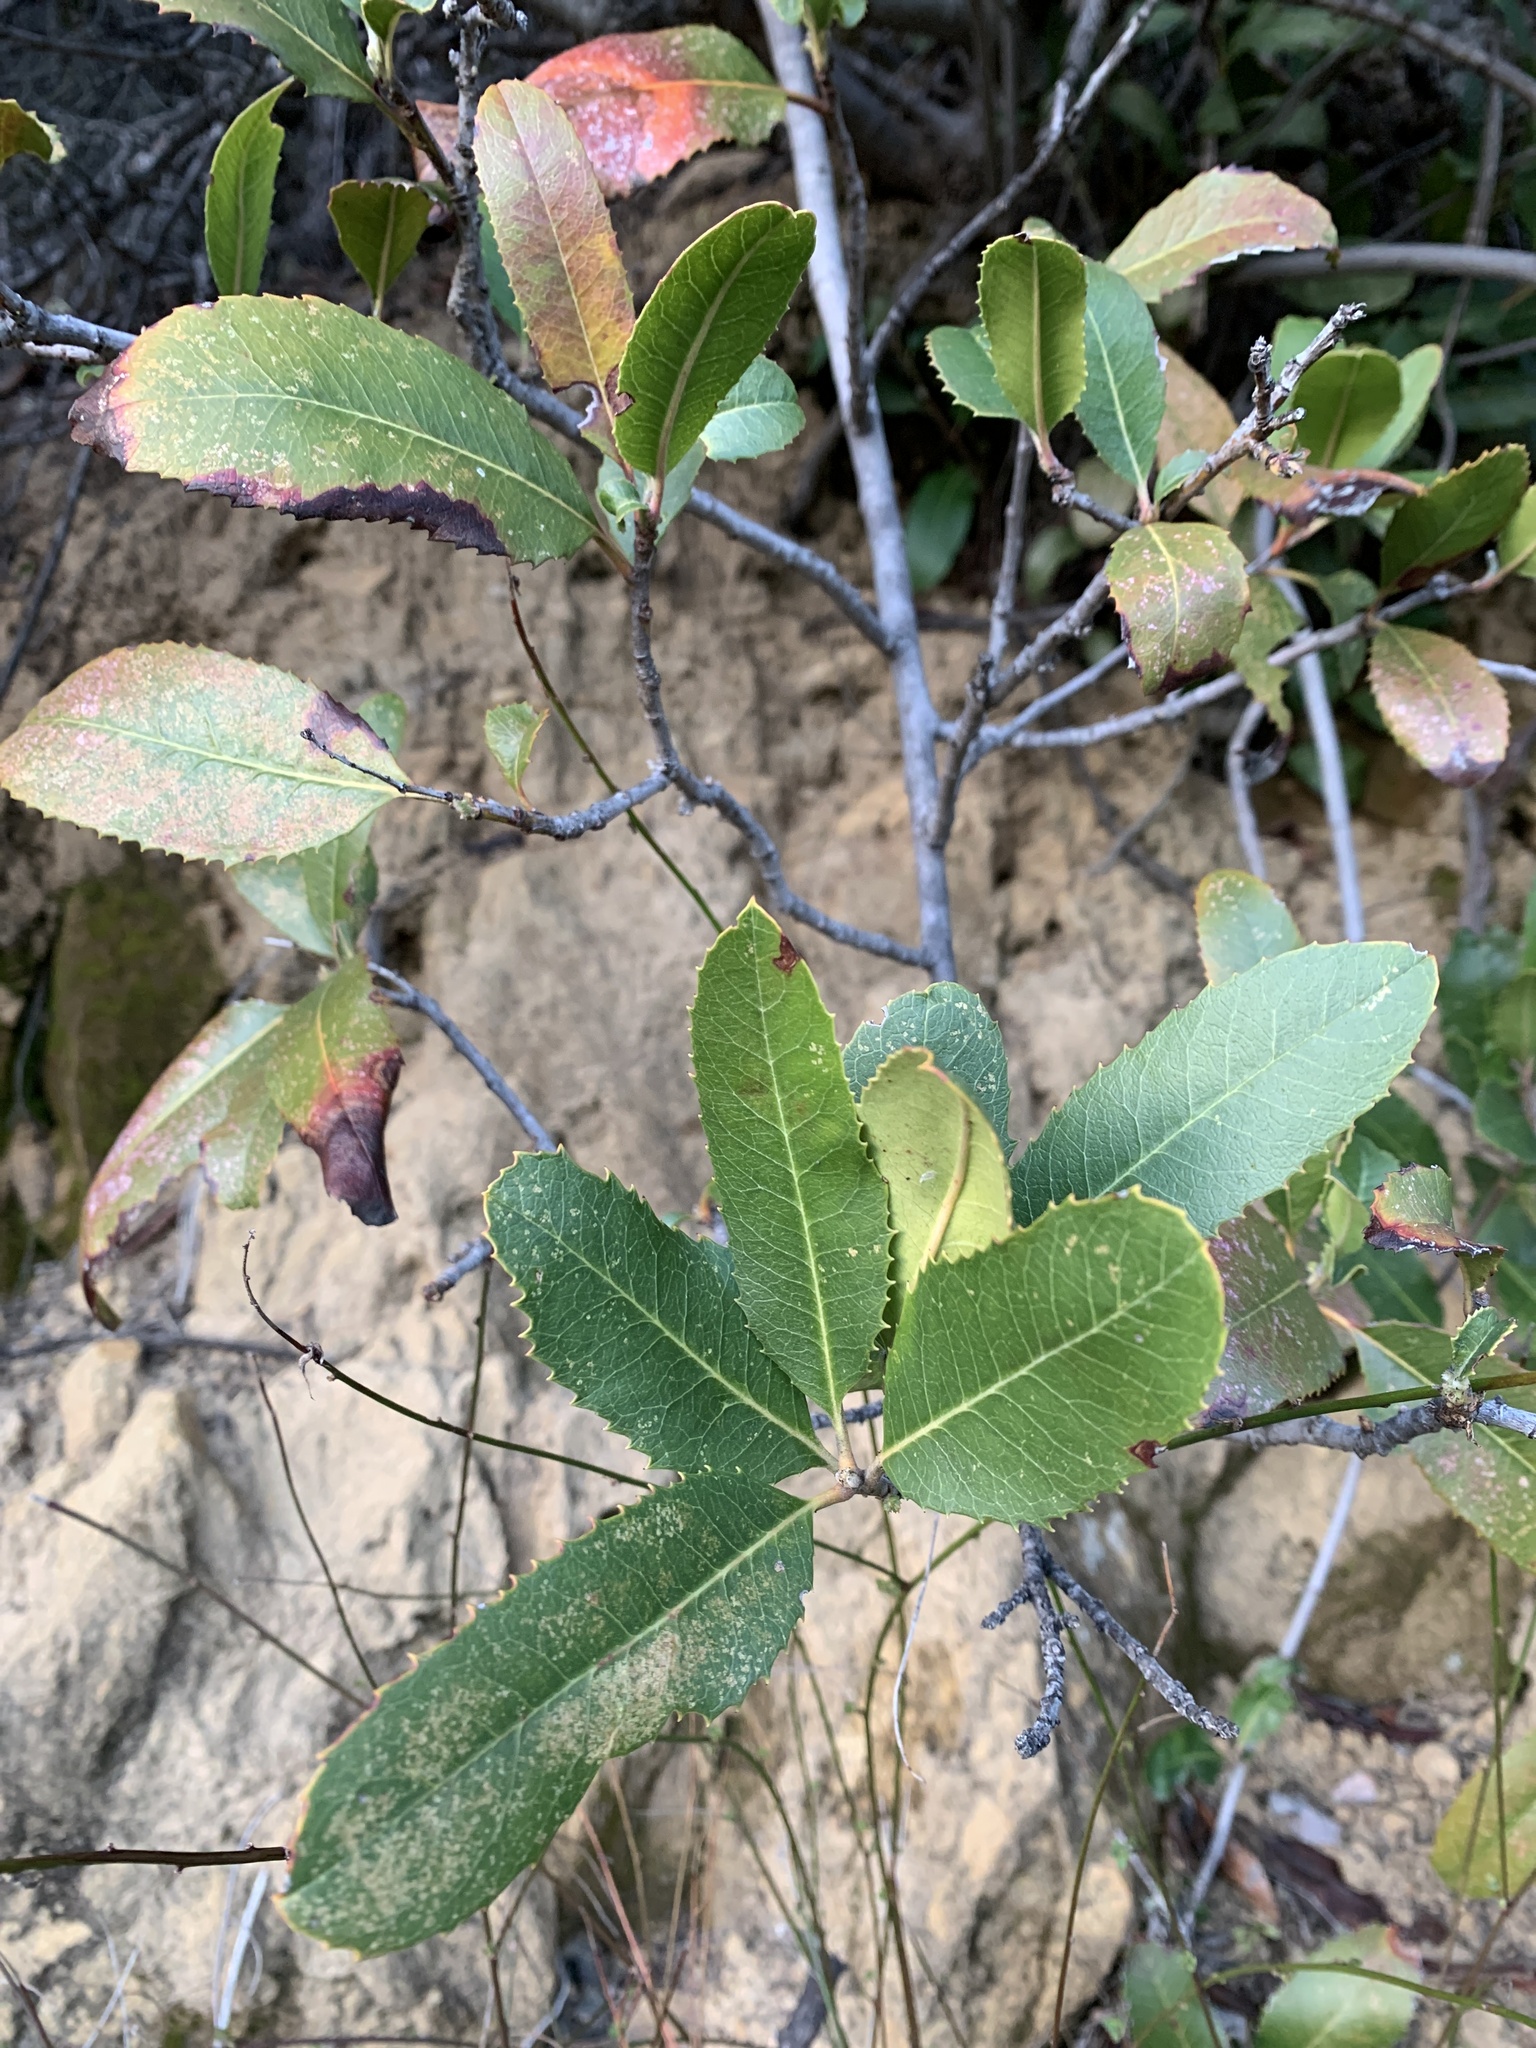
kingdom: Plantae
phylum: Tracheophyta
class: Magnoliopsida
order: Rosales
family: Rosaceae
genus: Heteromeles
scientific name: Heteromeles arbutifolia
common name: California-holly
